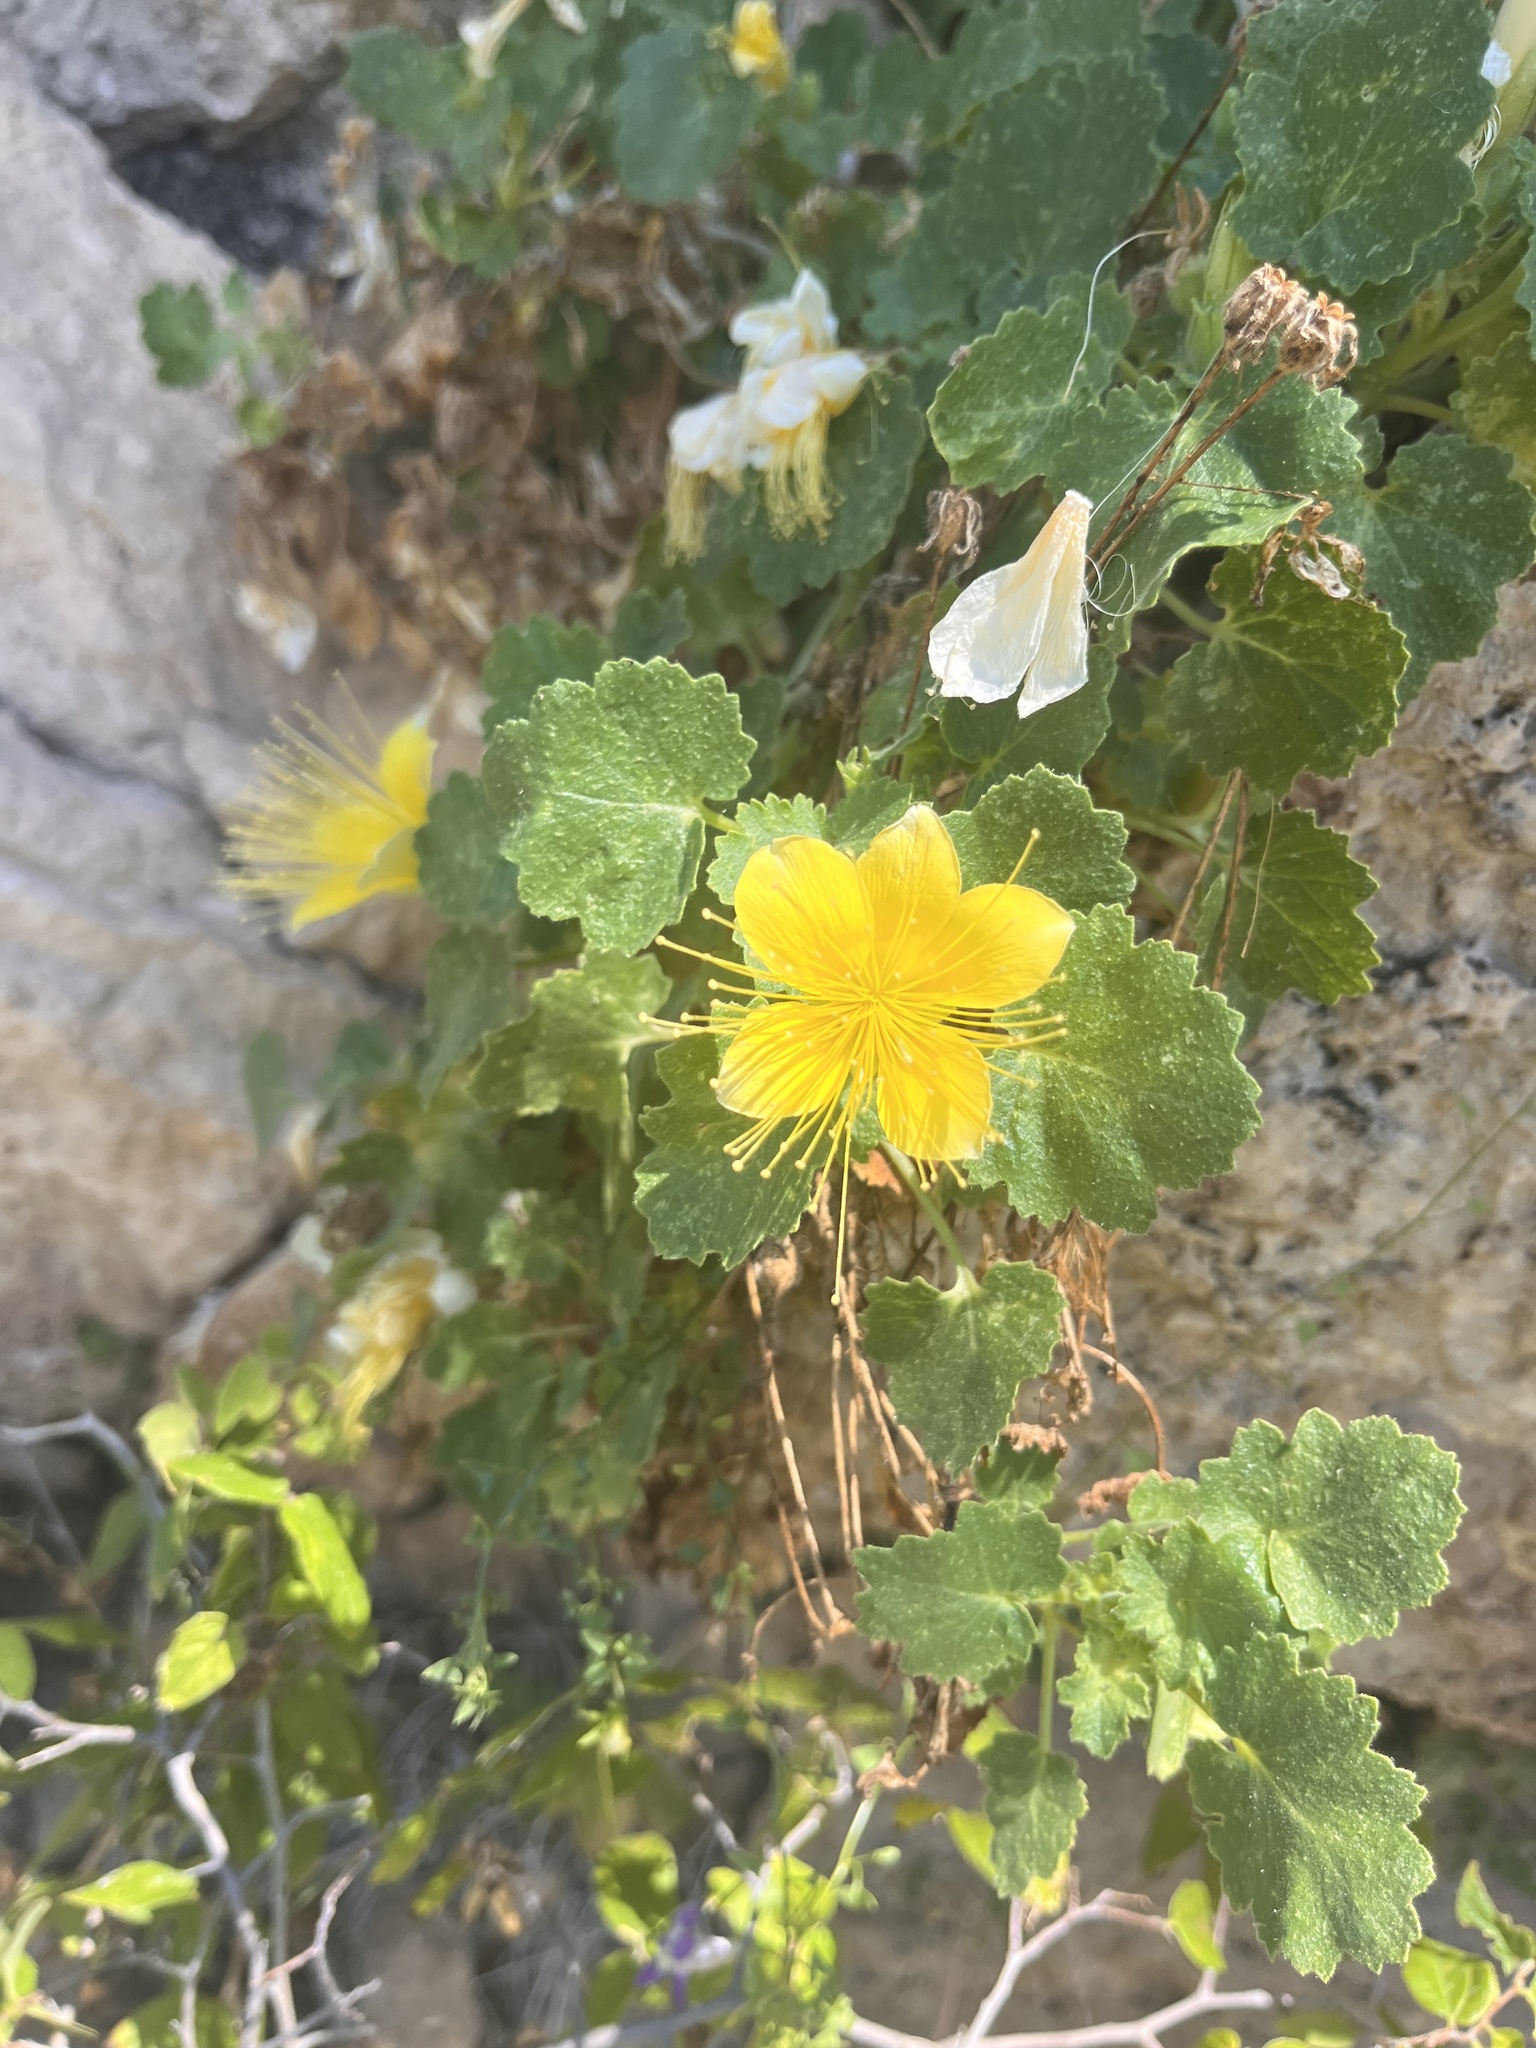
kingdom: Plantae
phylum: Tracheophyta
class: Magnoliopsida
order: Cornales
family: Loasaceae
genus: Eucnide
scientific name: Eucnide bartonioides
